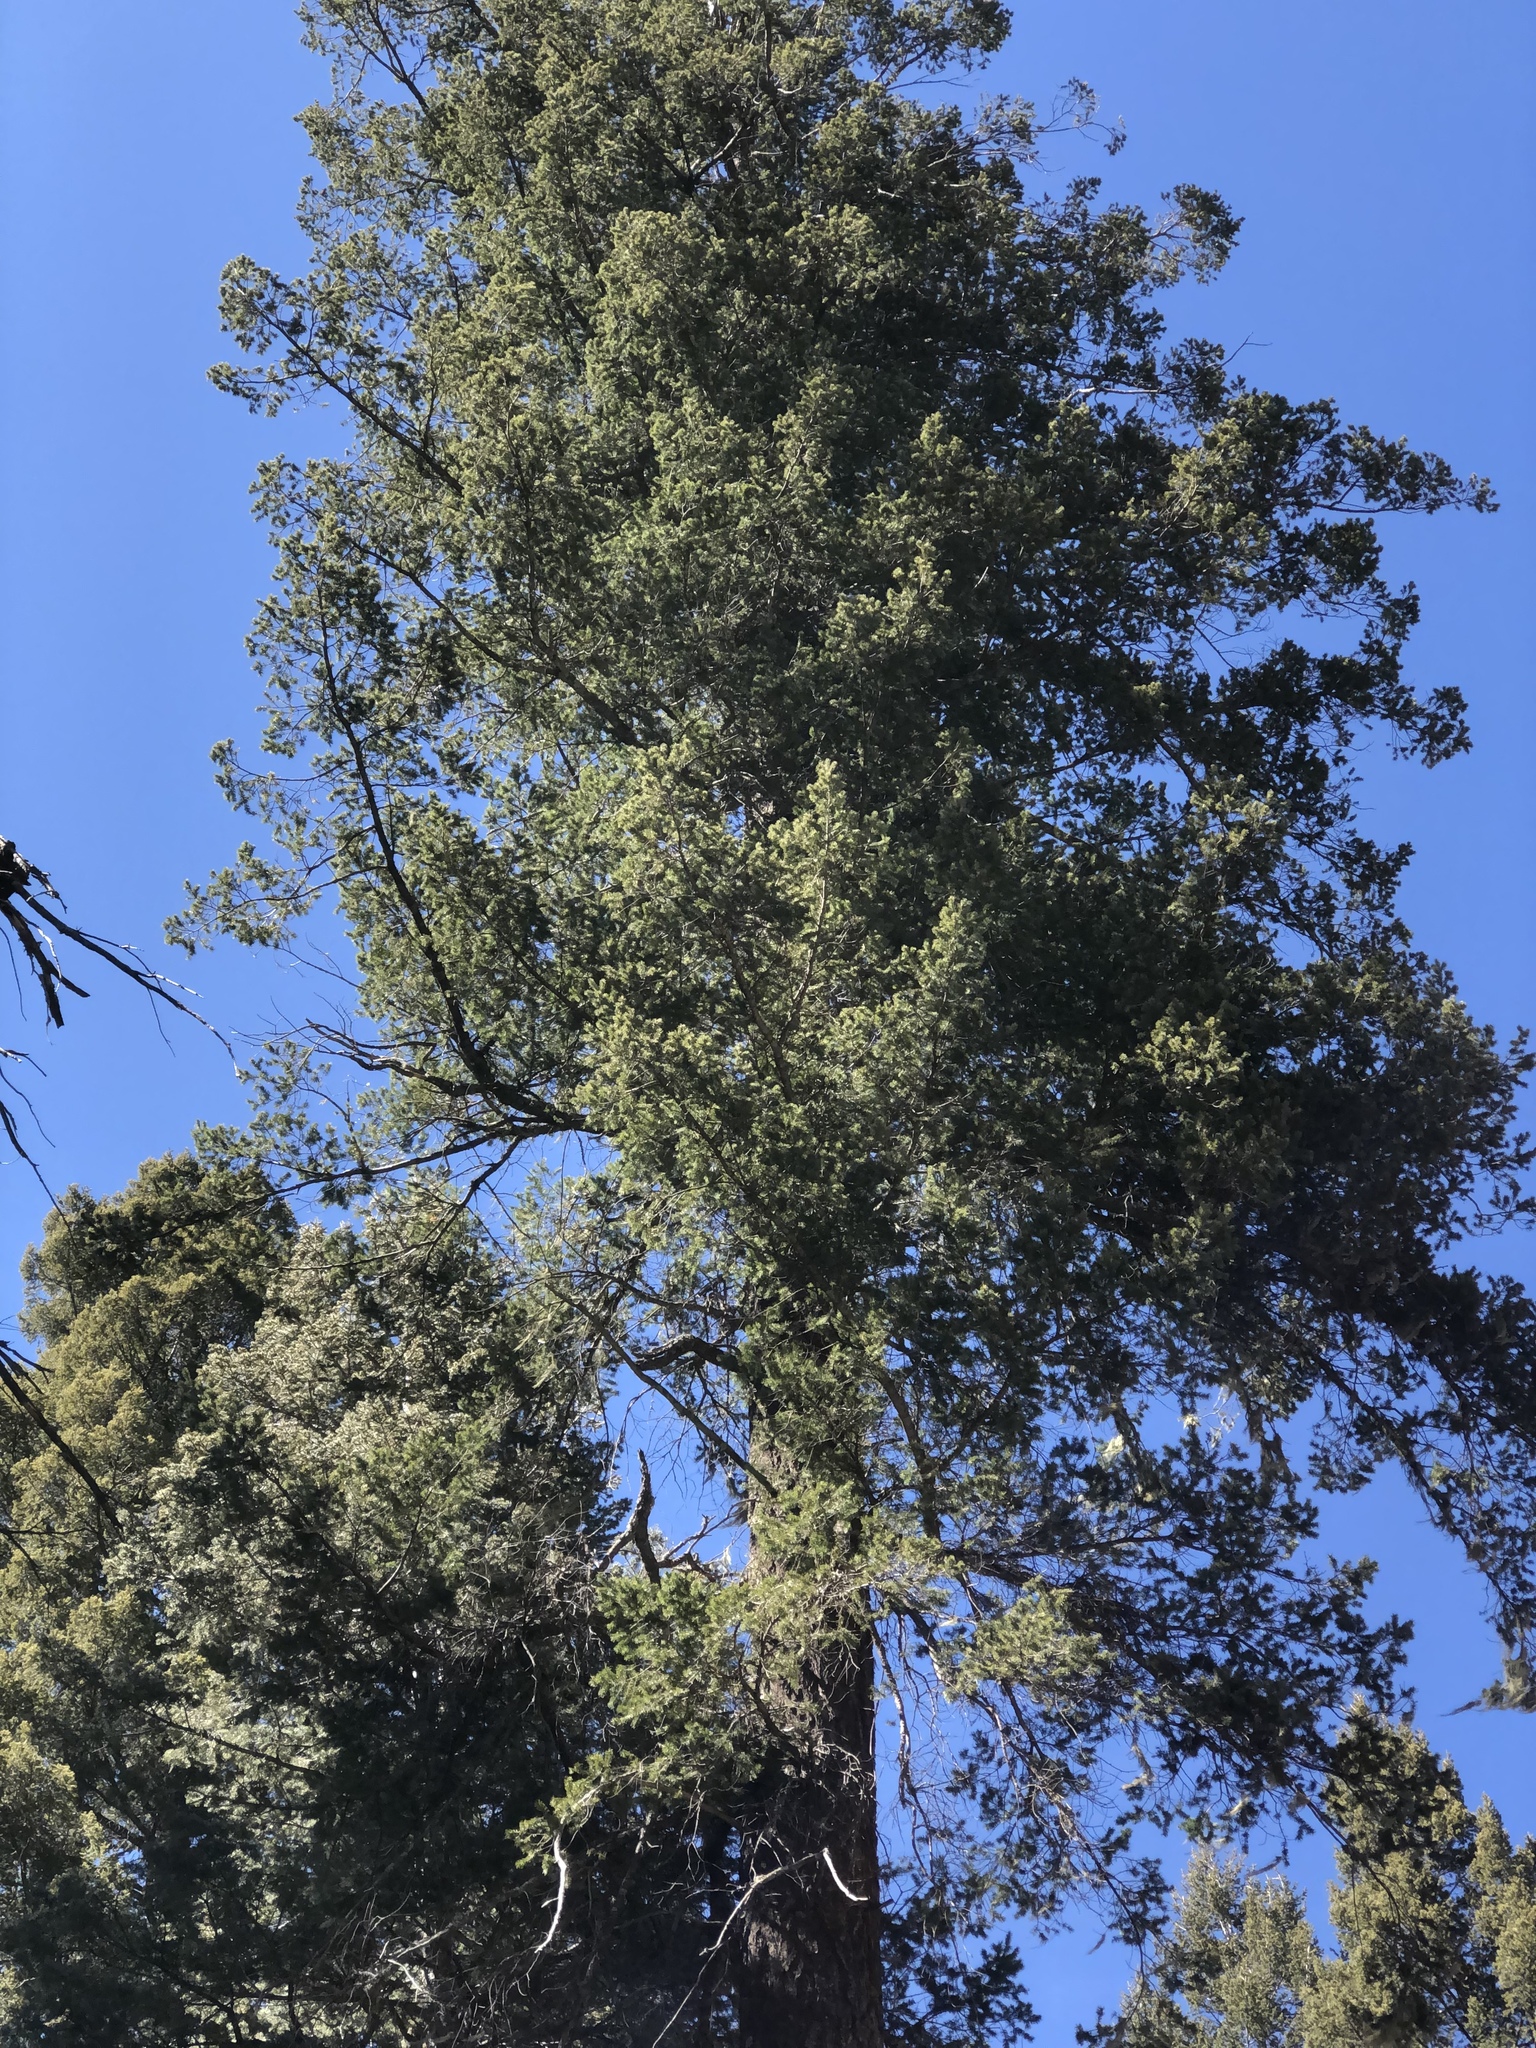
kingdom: Plantae
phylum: Tracheophyta
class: Pinopsida
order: Pinales
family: Pinaceae
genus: Pseudotsuga
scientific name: Pseudotsuga menziesii
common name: Douglas fir
